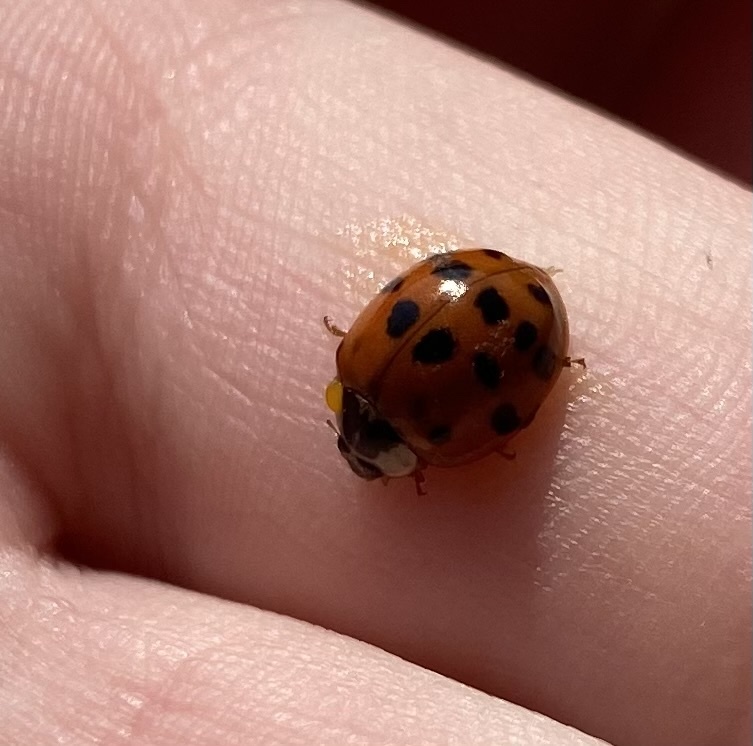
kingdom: Animalia
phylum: Arthropoda
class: Insecta
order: Coleoptera
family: Coccinellidae
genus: Harmonia
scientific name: Harmonia axyridis
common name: Harlequin ladybird
